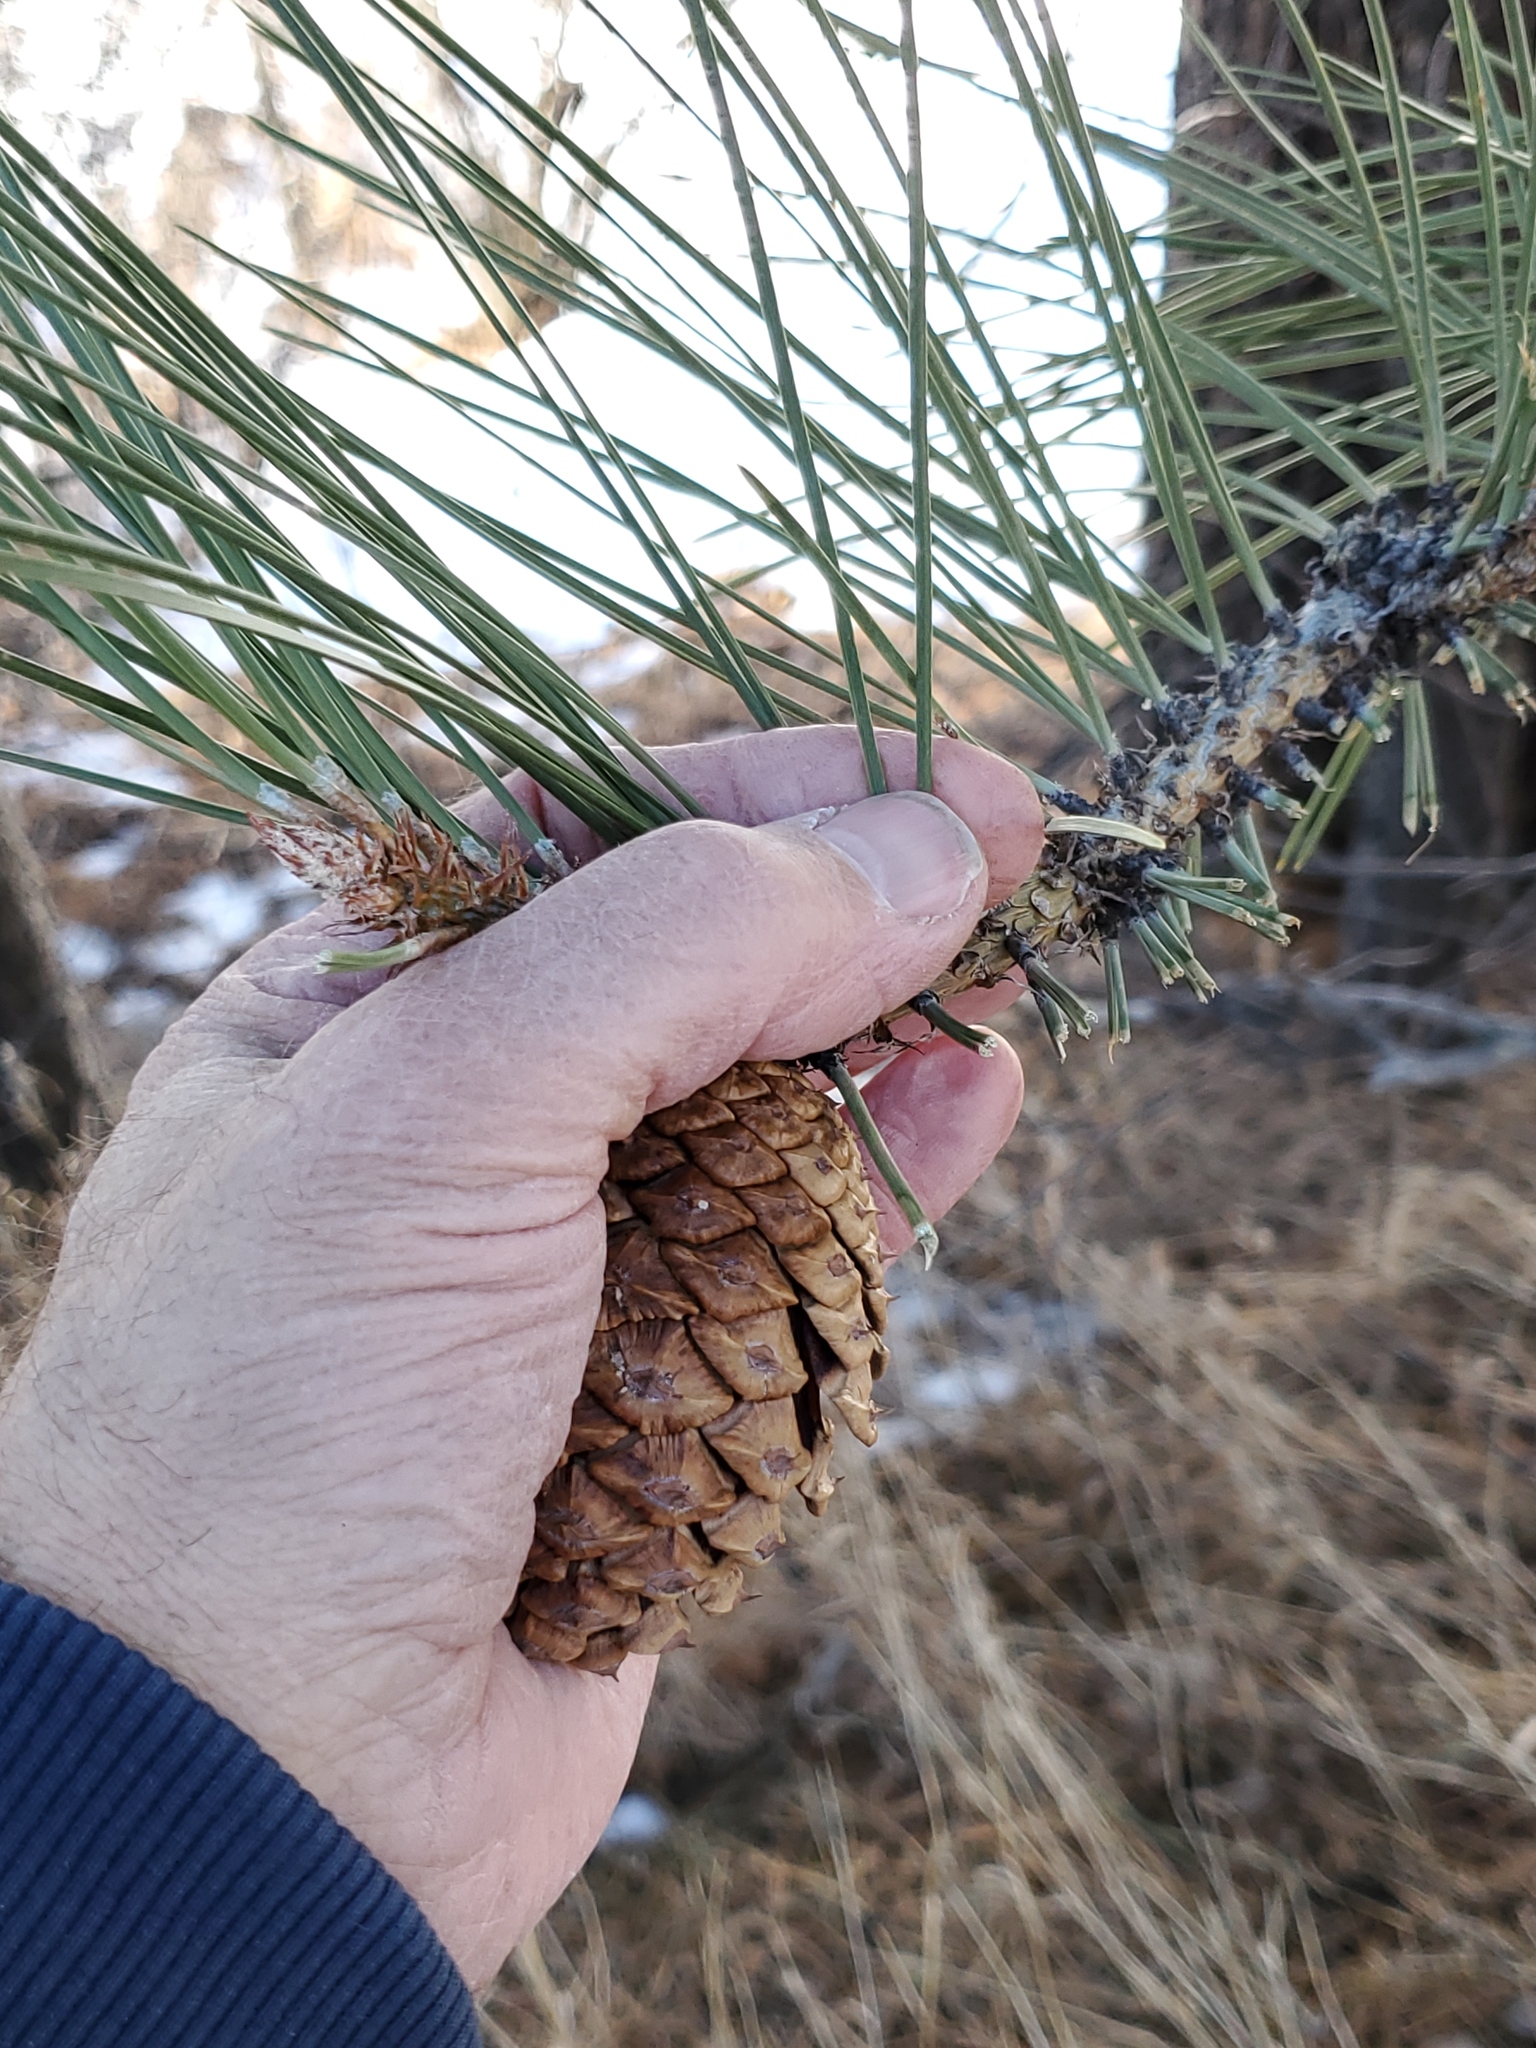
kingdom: Plantae
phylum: Tracheophyta
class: Pinopsida
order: Pinales
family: Pinaceae
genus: Pinus
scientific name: Pinus ponderosa
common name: Western yellow-pine
